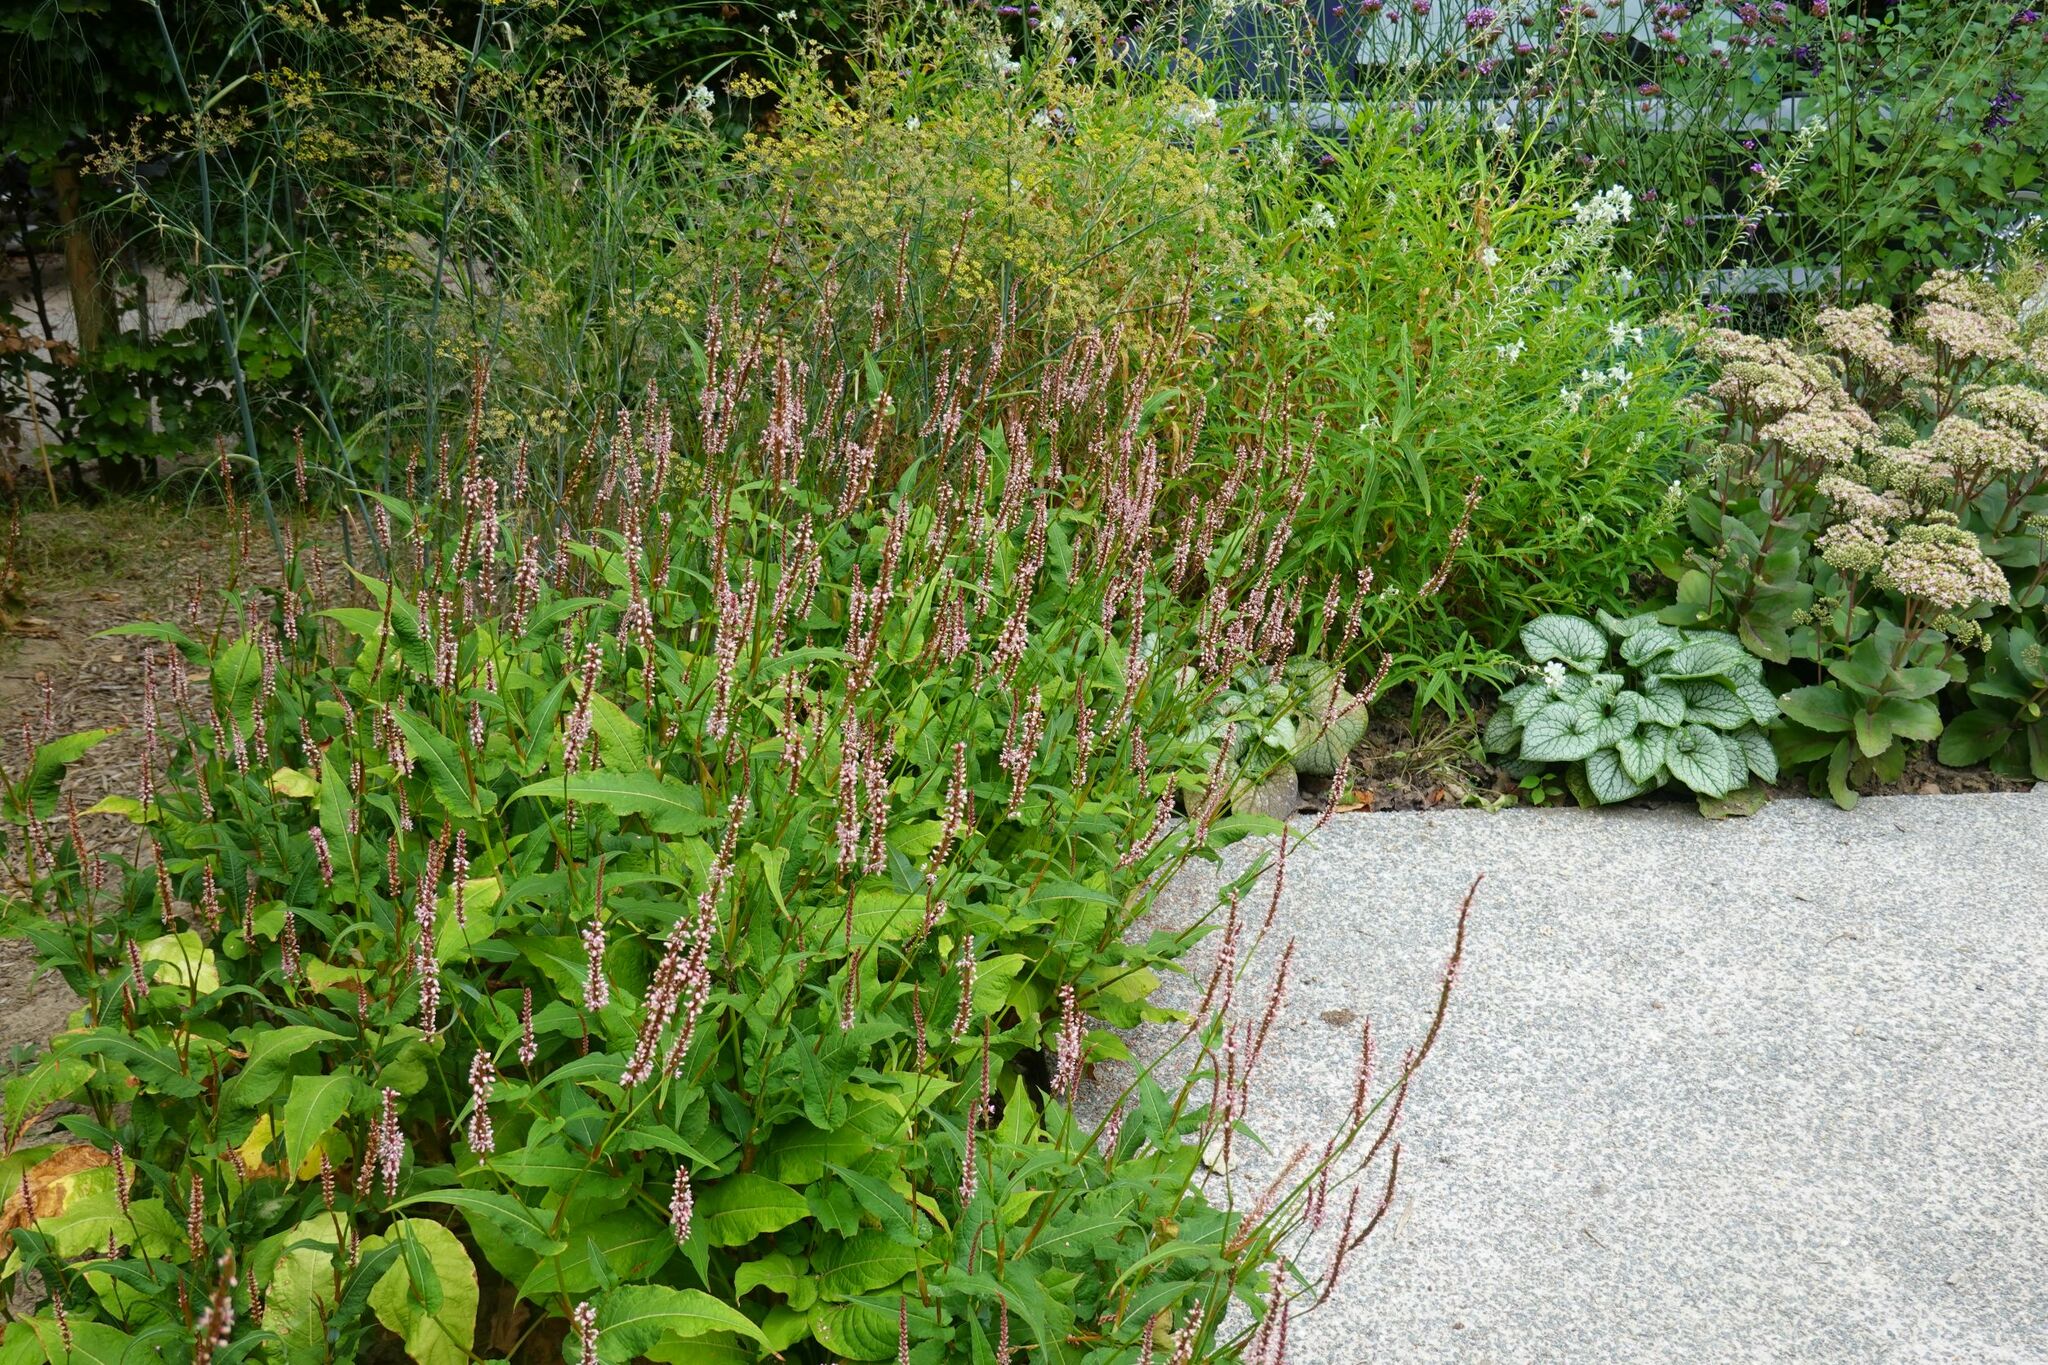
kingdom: Animalia
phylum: Arthropoda
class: Insecta
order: Hymenoptera
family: Vespidae
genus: Vespa
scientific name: Vespa velutina
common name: Asian hornet
